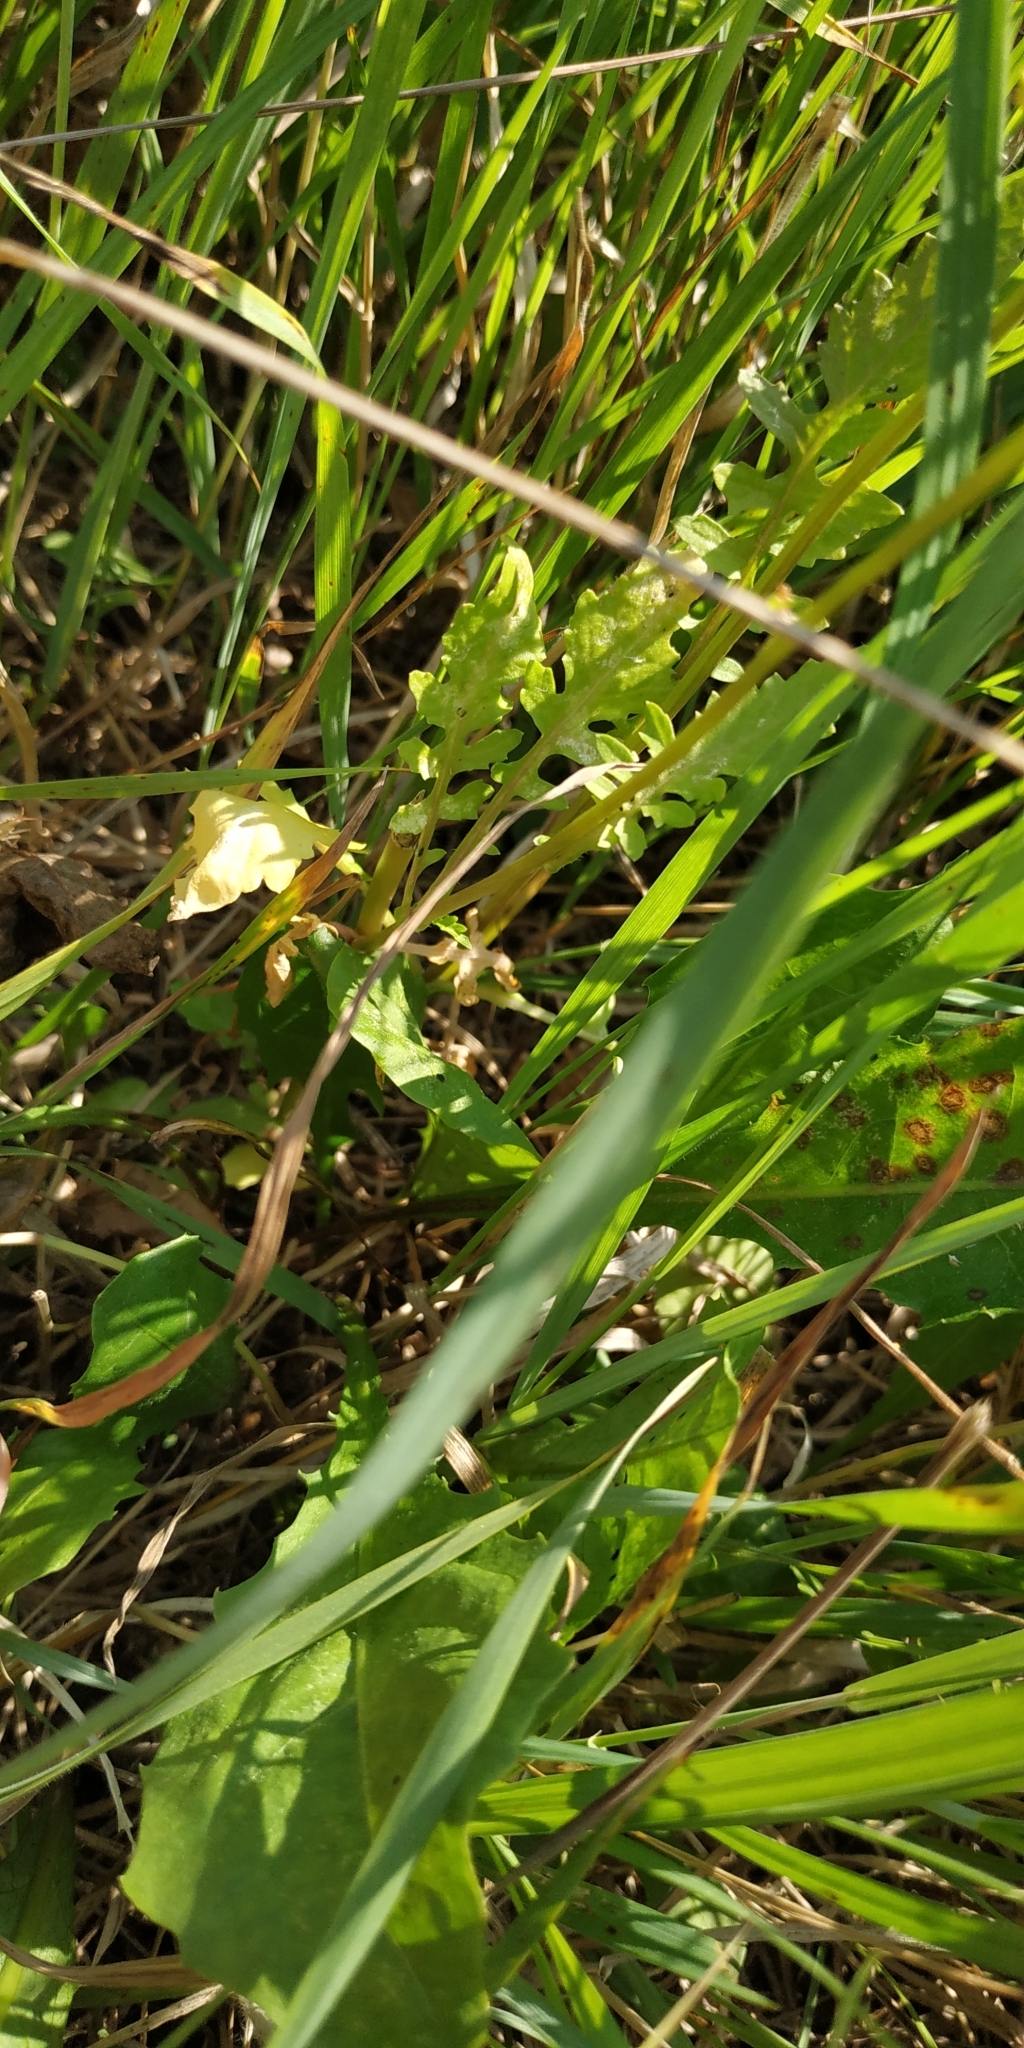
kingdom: Plantae
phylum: Tracheophyta
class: Magnoliopsida
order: Brassicales
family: Brassicaceae
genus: Rorippa
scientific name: Rorippa palustris
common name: Marsh yellow-cress
